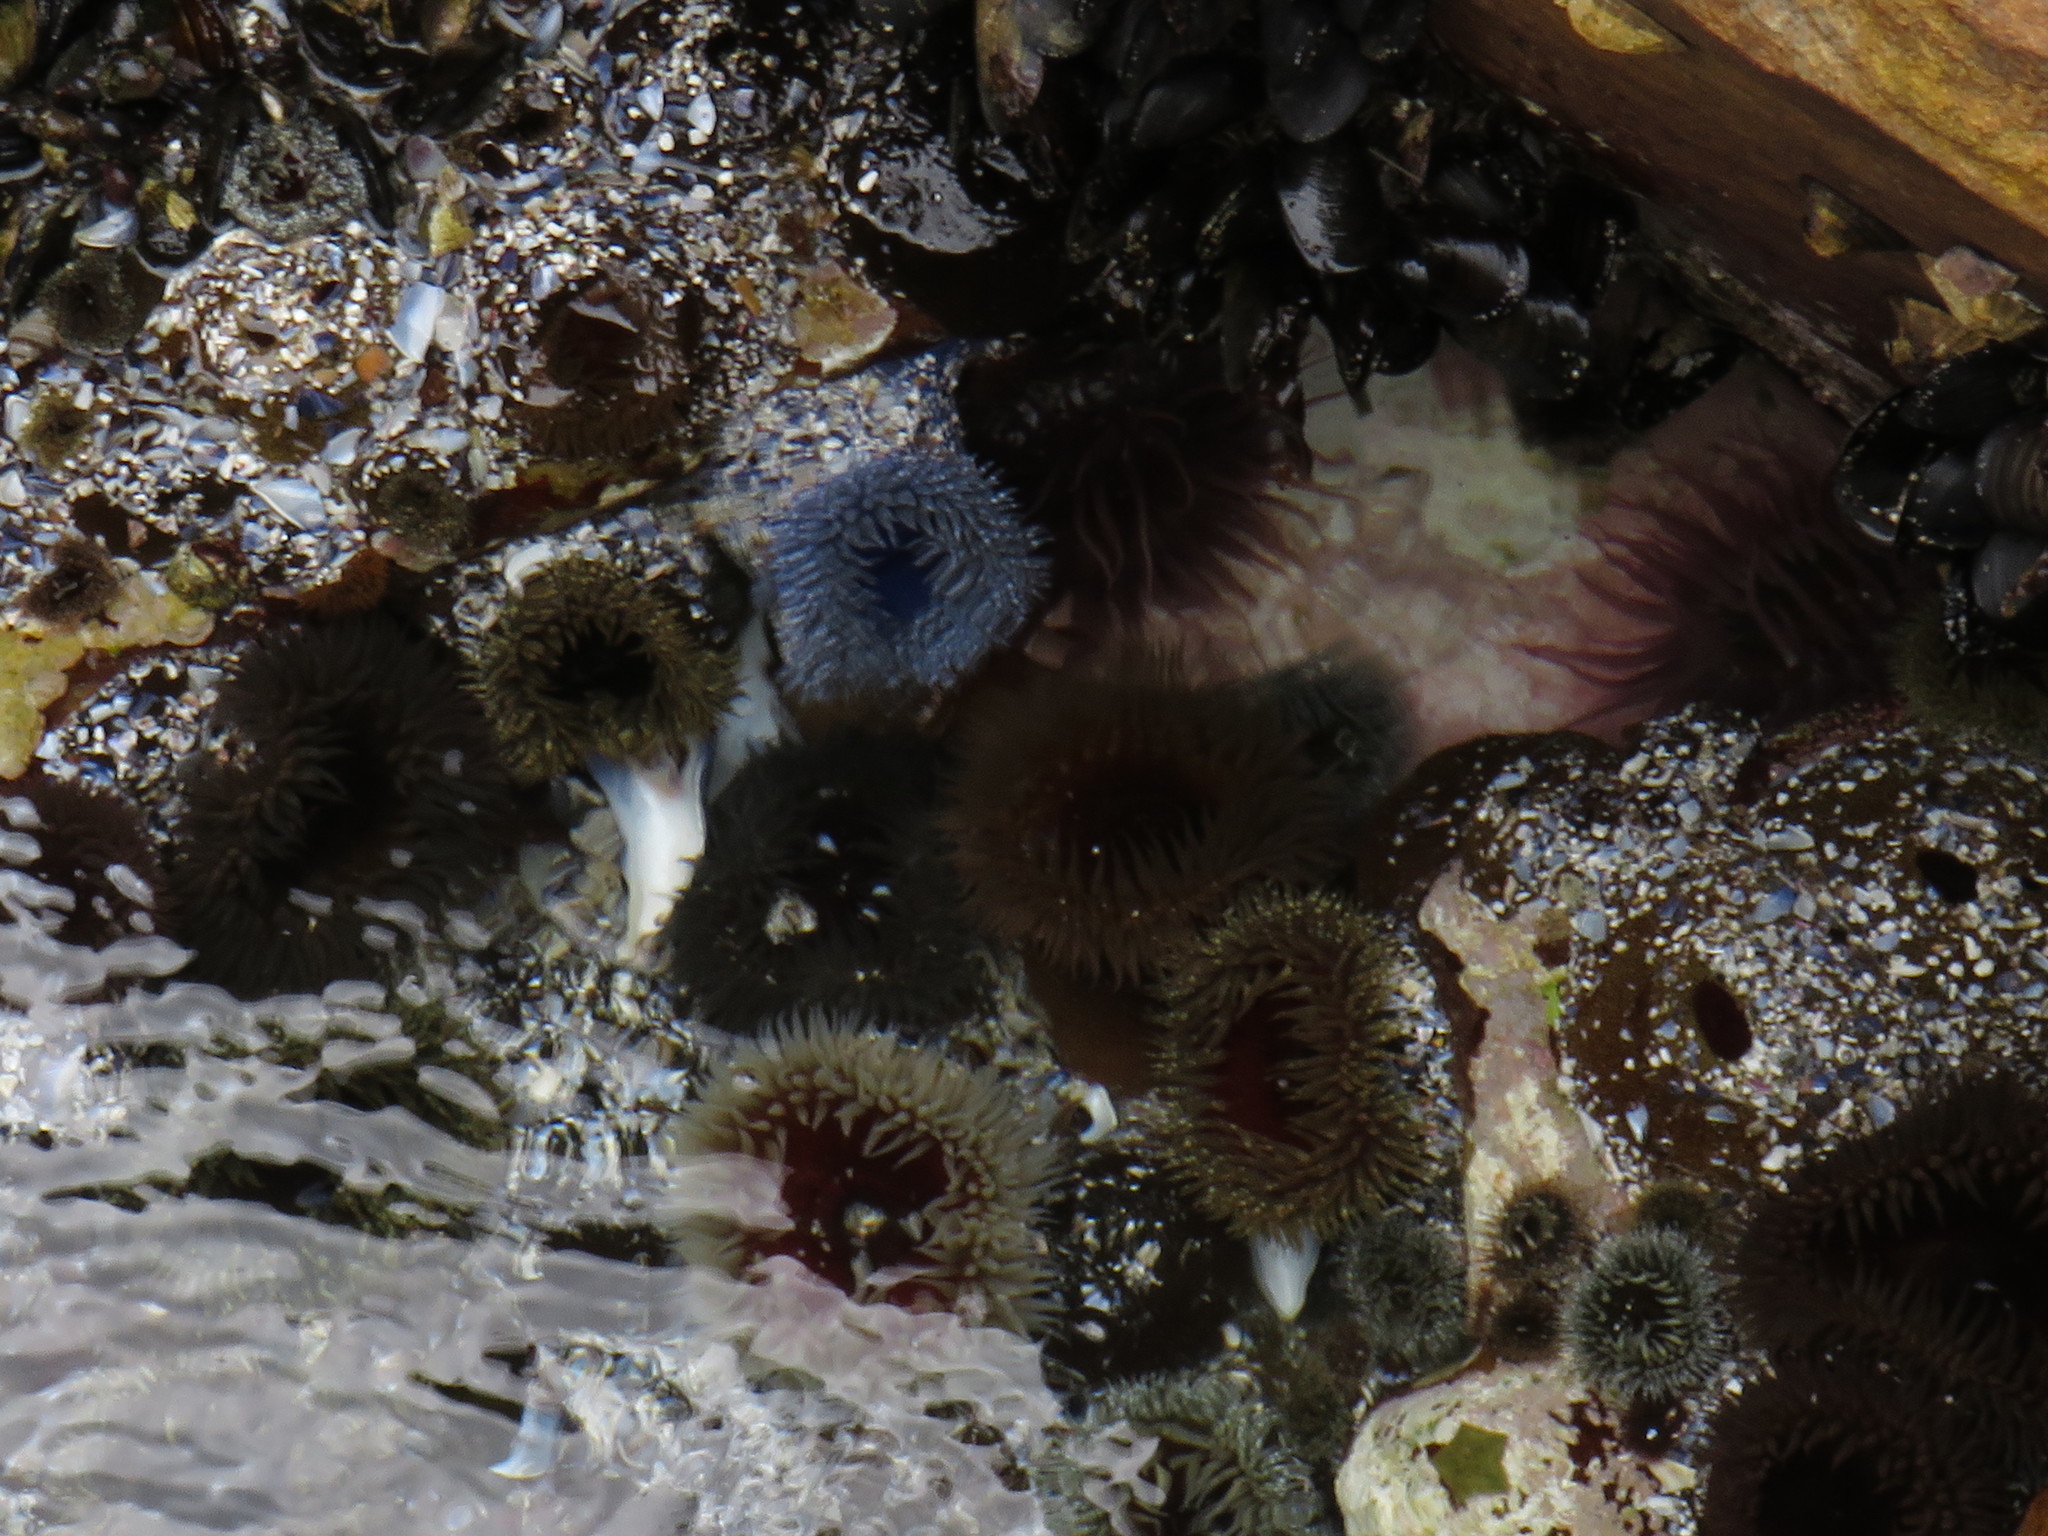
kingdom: Animalia
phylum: Cnidaria
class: Anthozoa
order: Actiniaria
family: Actiniidae
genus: Bunodactis
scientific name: Bunodactis reynaudi
